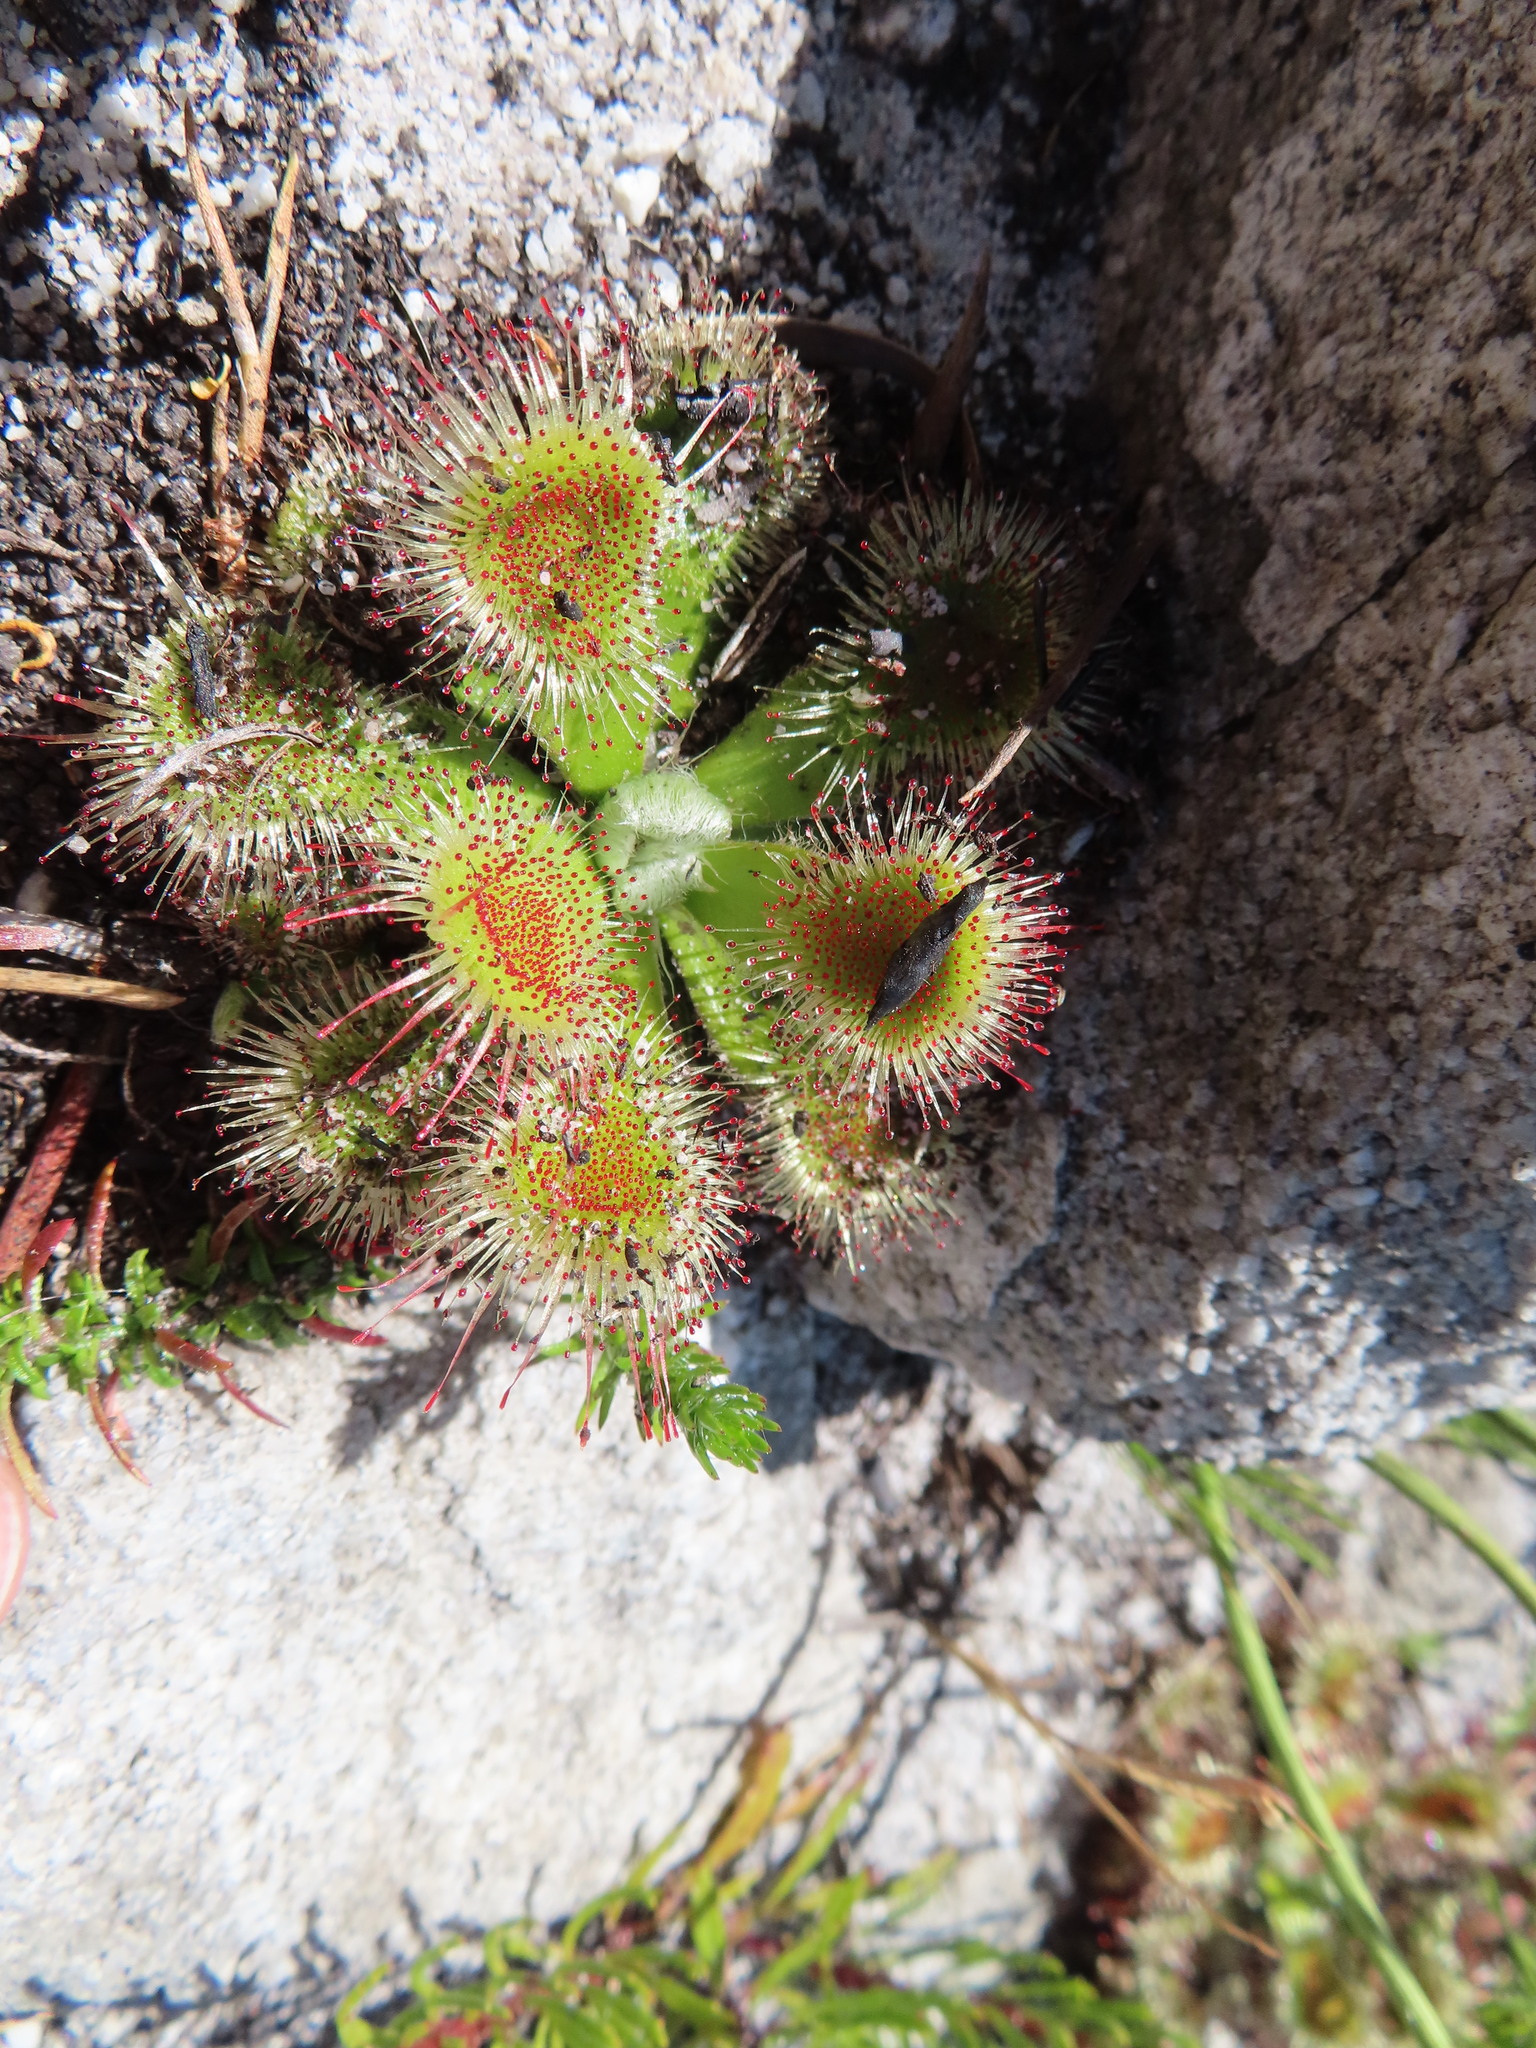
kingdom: Plantae
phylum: Tracheophyta
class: Magnoliopsida
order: Caryophyllales
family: Droseraceae
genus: Drosera
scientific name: Drosera aliciae
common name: Alice sundew
